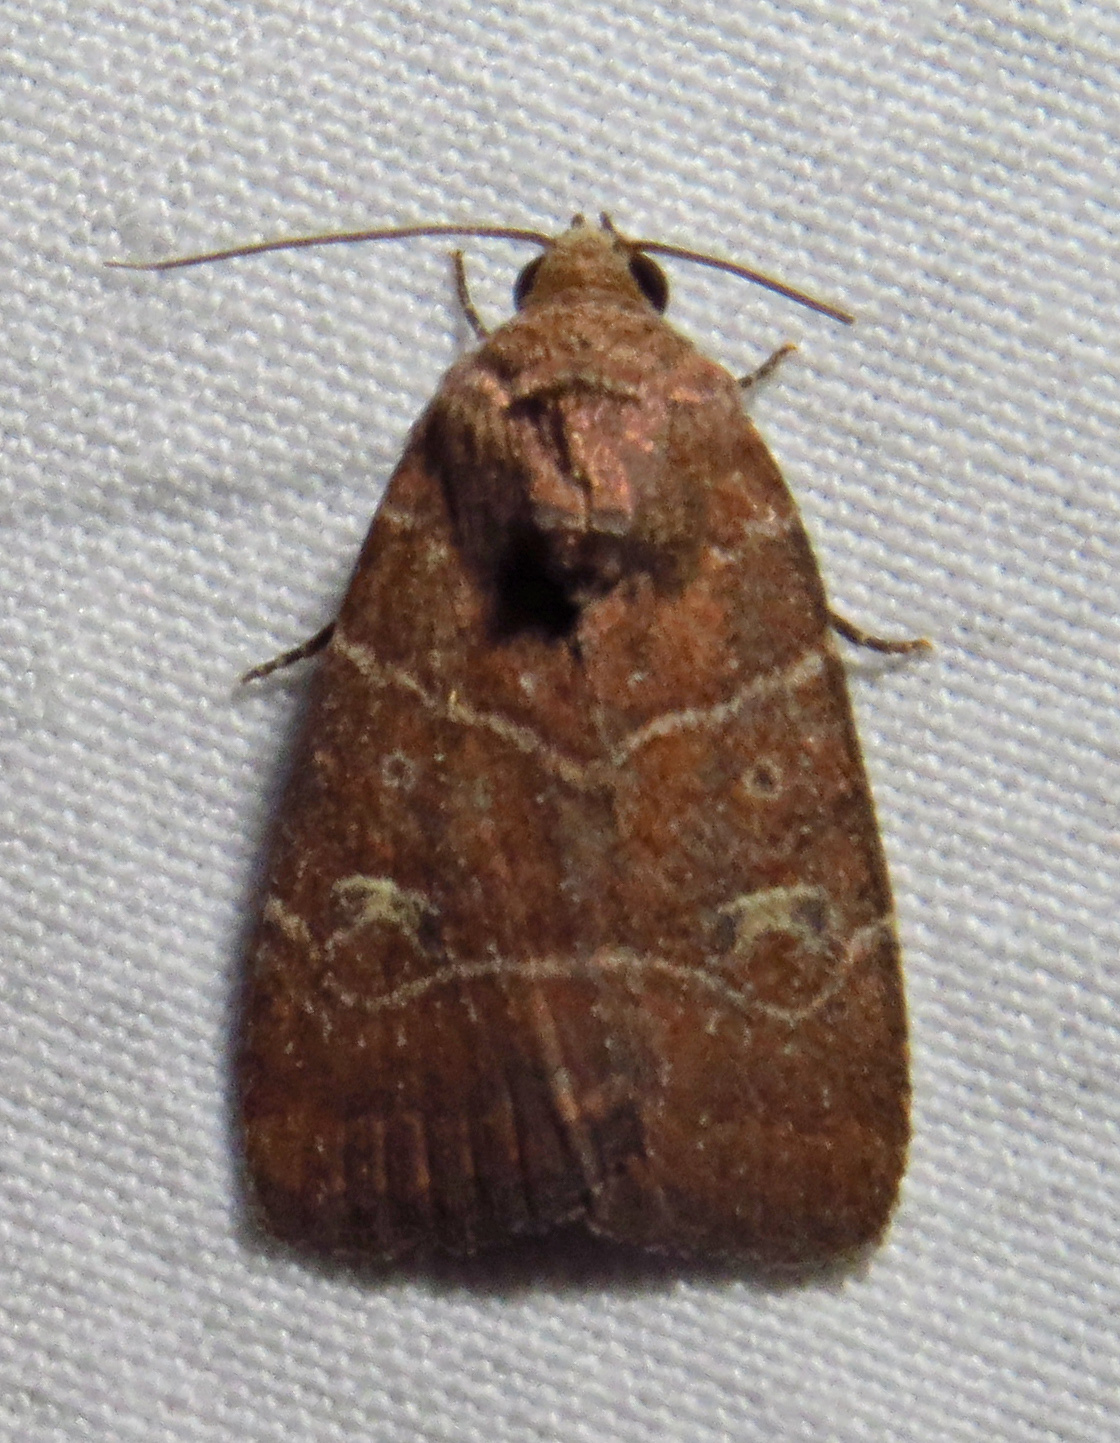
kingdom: Animalia
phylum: Arthropoda
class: Insecta
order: Lepidoptera
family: Noctuidae
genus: Elaphria
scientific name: Elaphria grata
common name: Grateful midget moth
